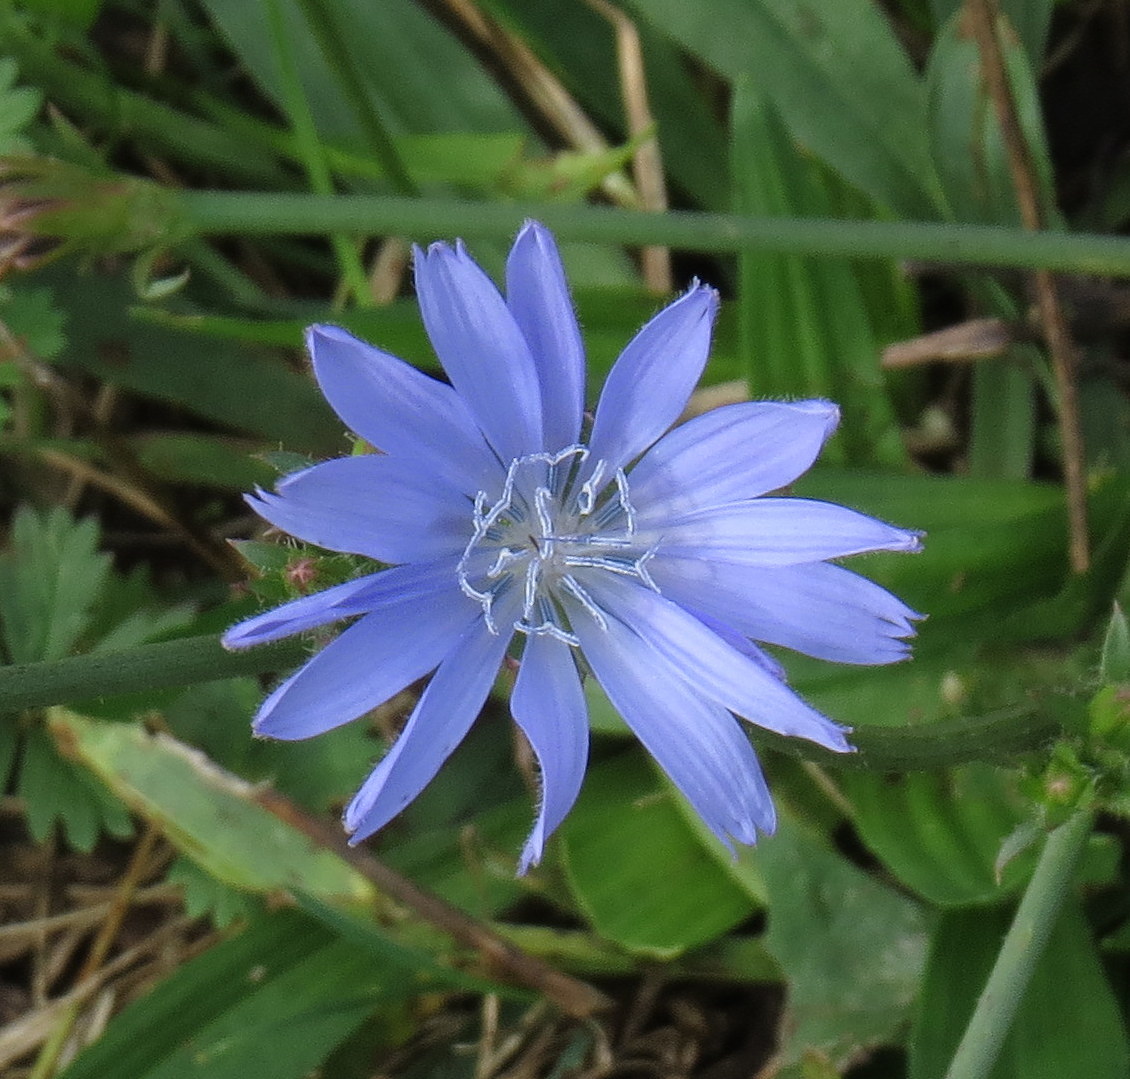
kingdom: Plantae
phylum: Tracheophyta
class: Magnoliopsida
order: Asterales
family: Asteraceae
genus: Cichorium
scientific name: Cichorium intybus
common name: Chicory
